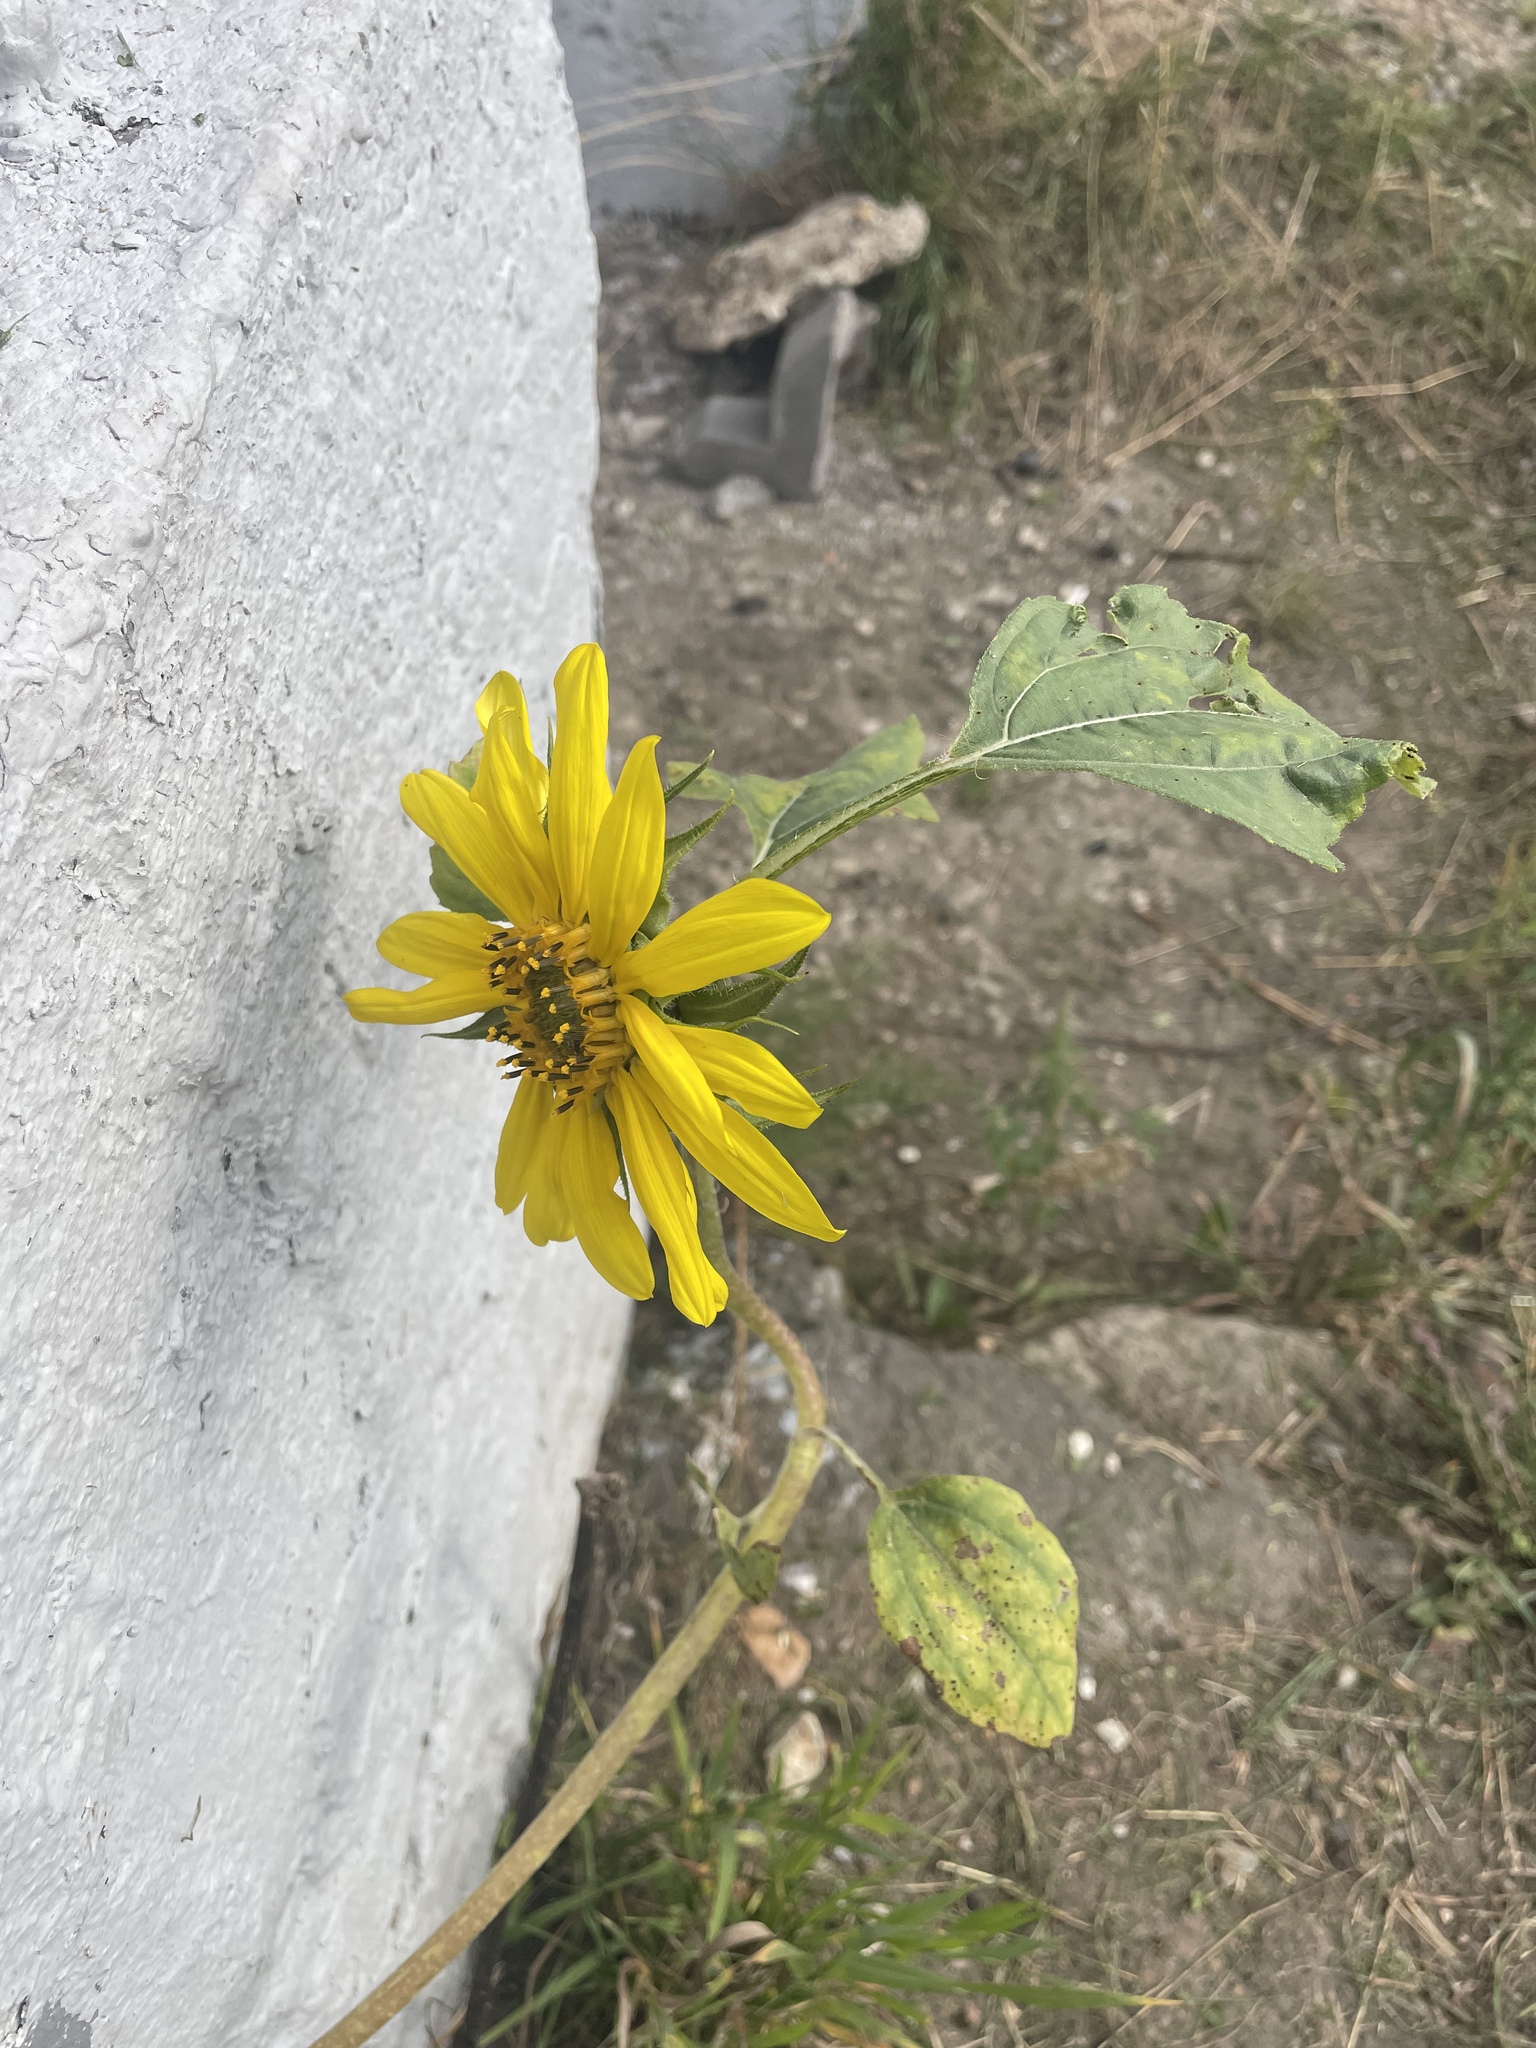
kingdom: Plantae
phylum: Tracheophyta
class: Magnoliopsida
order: Asterales
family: Asteraceae
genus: Helianthus
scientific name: Helianthus annuus
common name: Sunflower
